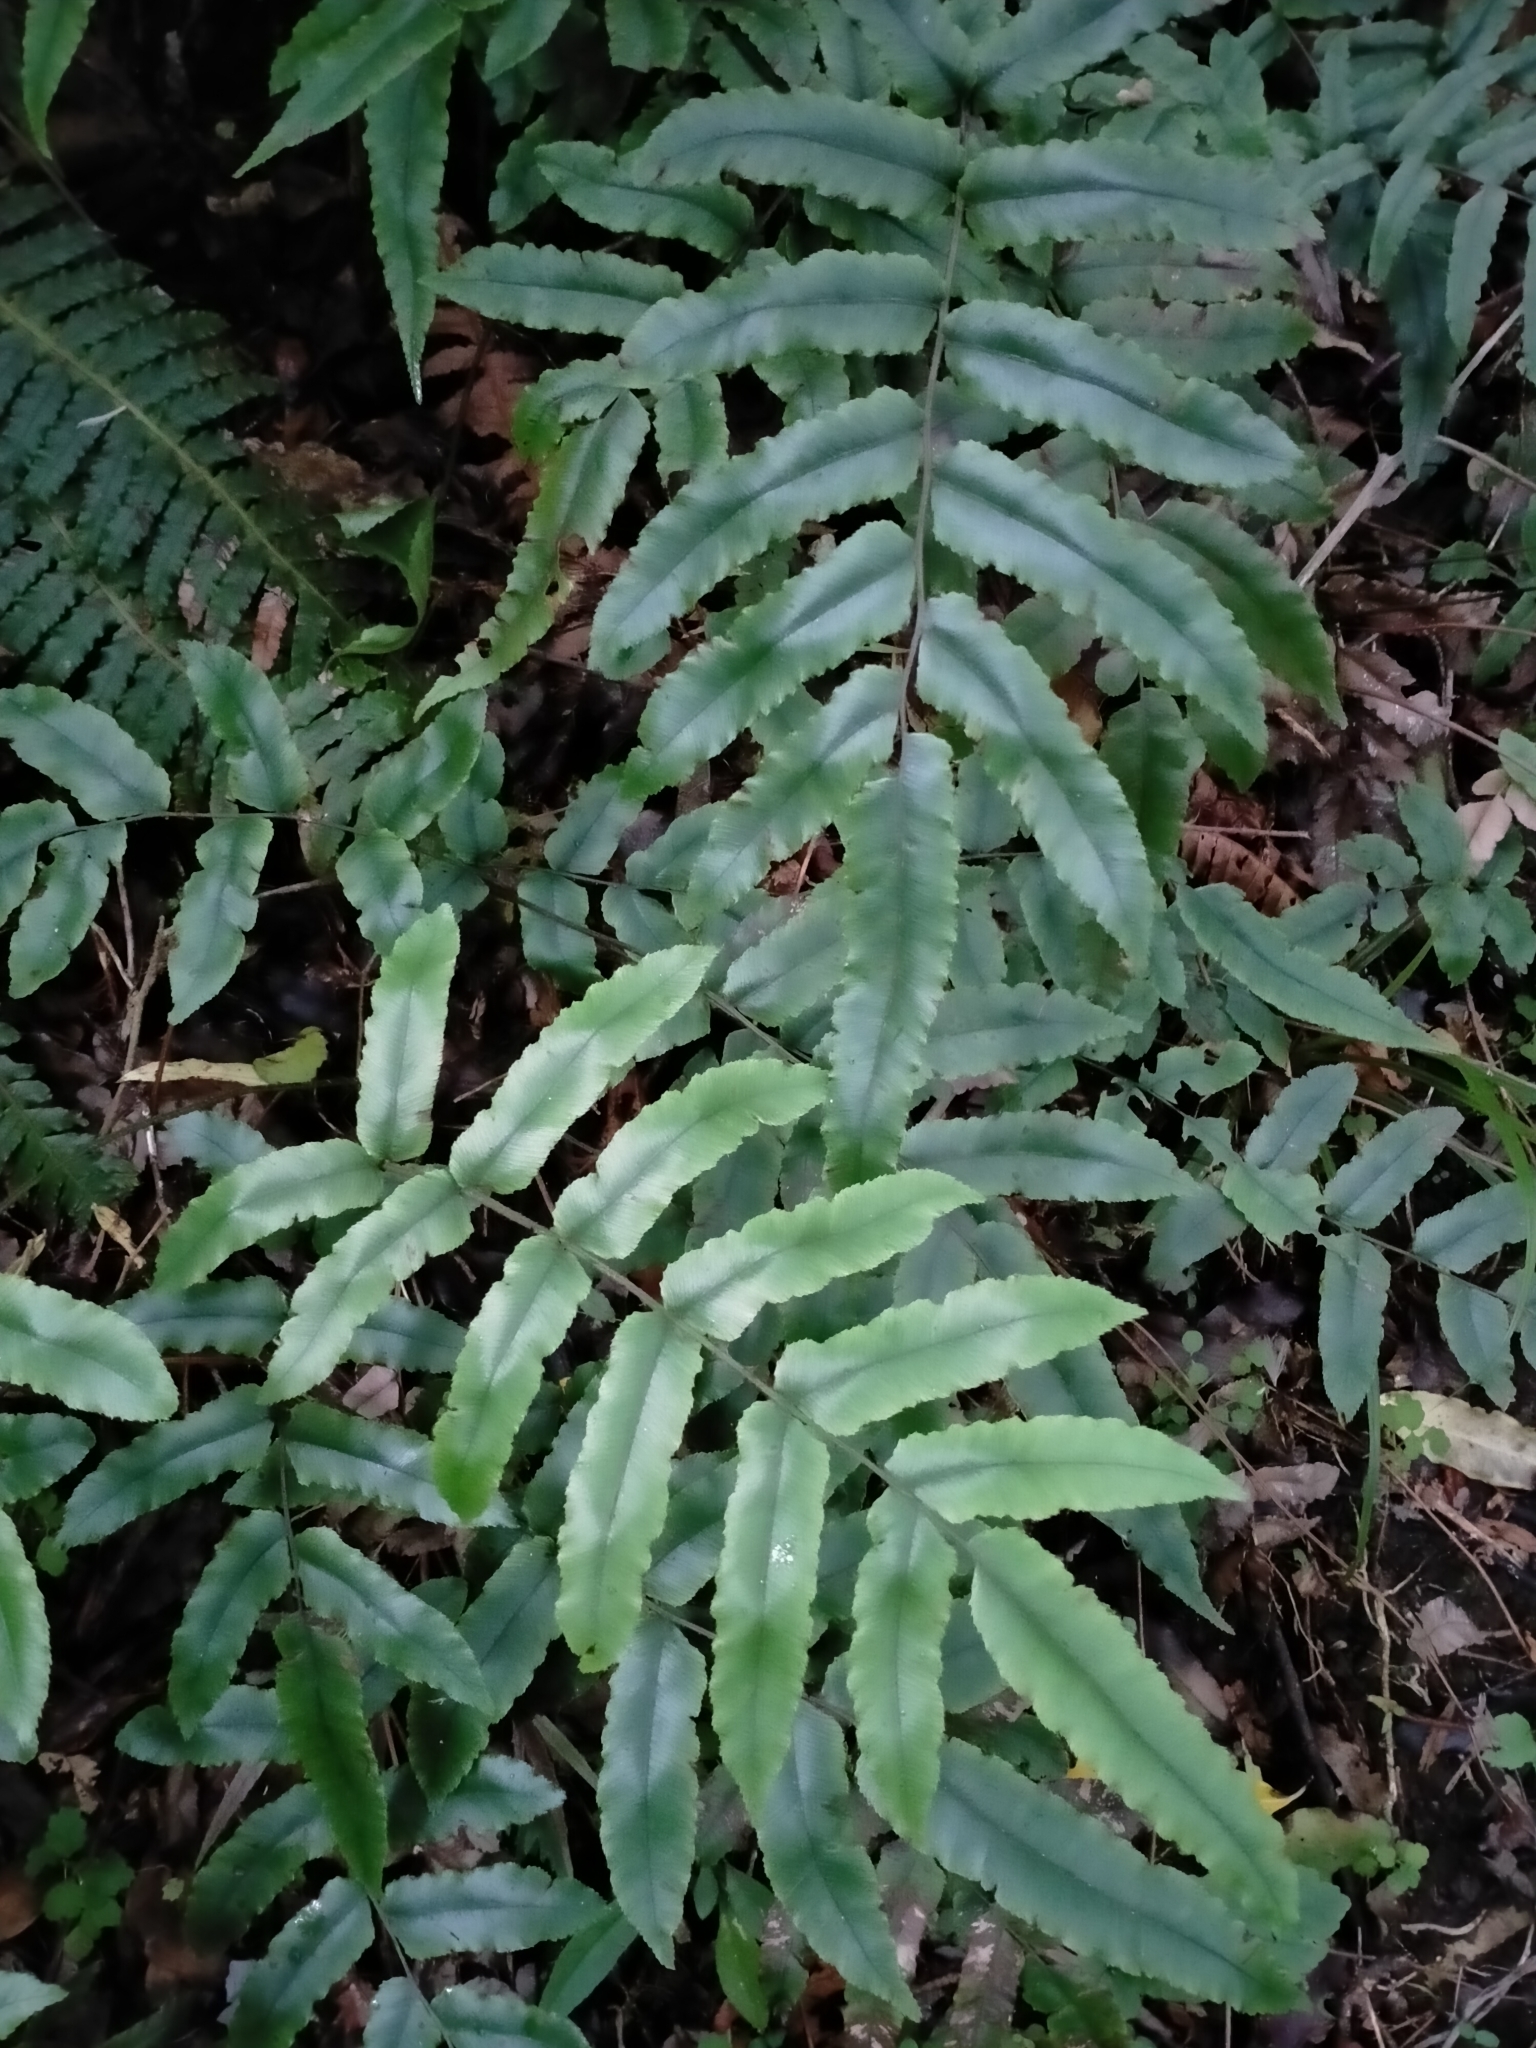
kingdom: Plantae
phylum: Tracheophyta
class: Polypodiopsida
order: Polypodiales
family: Blechnaceae
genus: Parablechnum
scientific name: Parablechnum procerum
